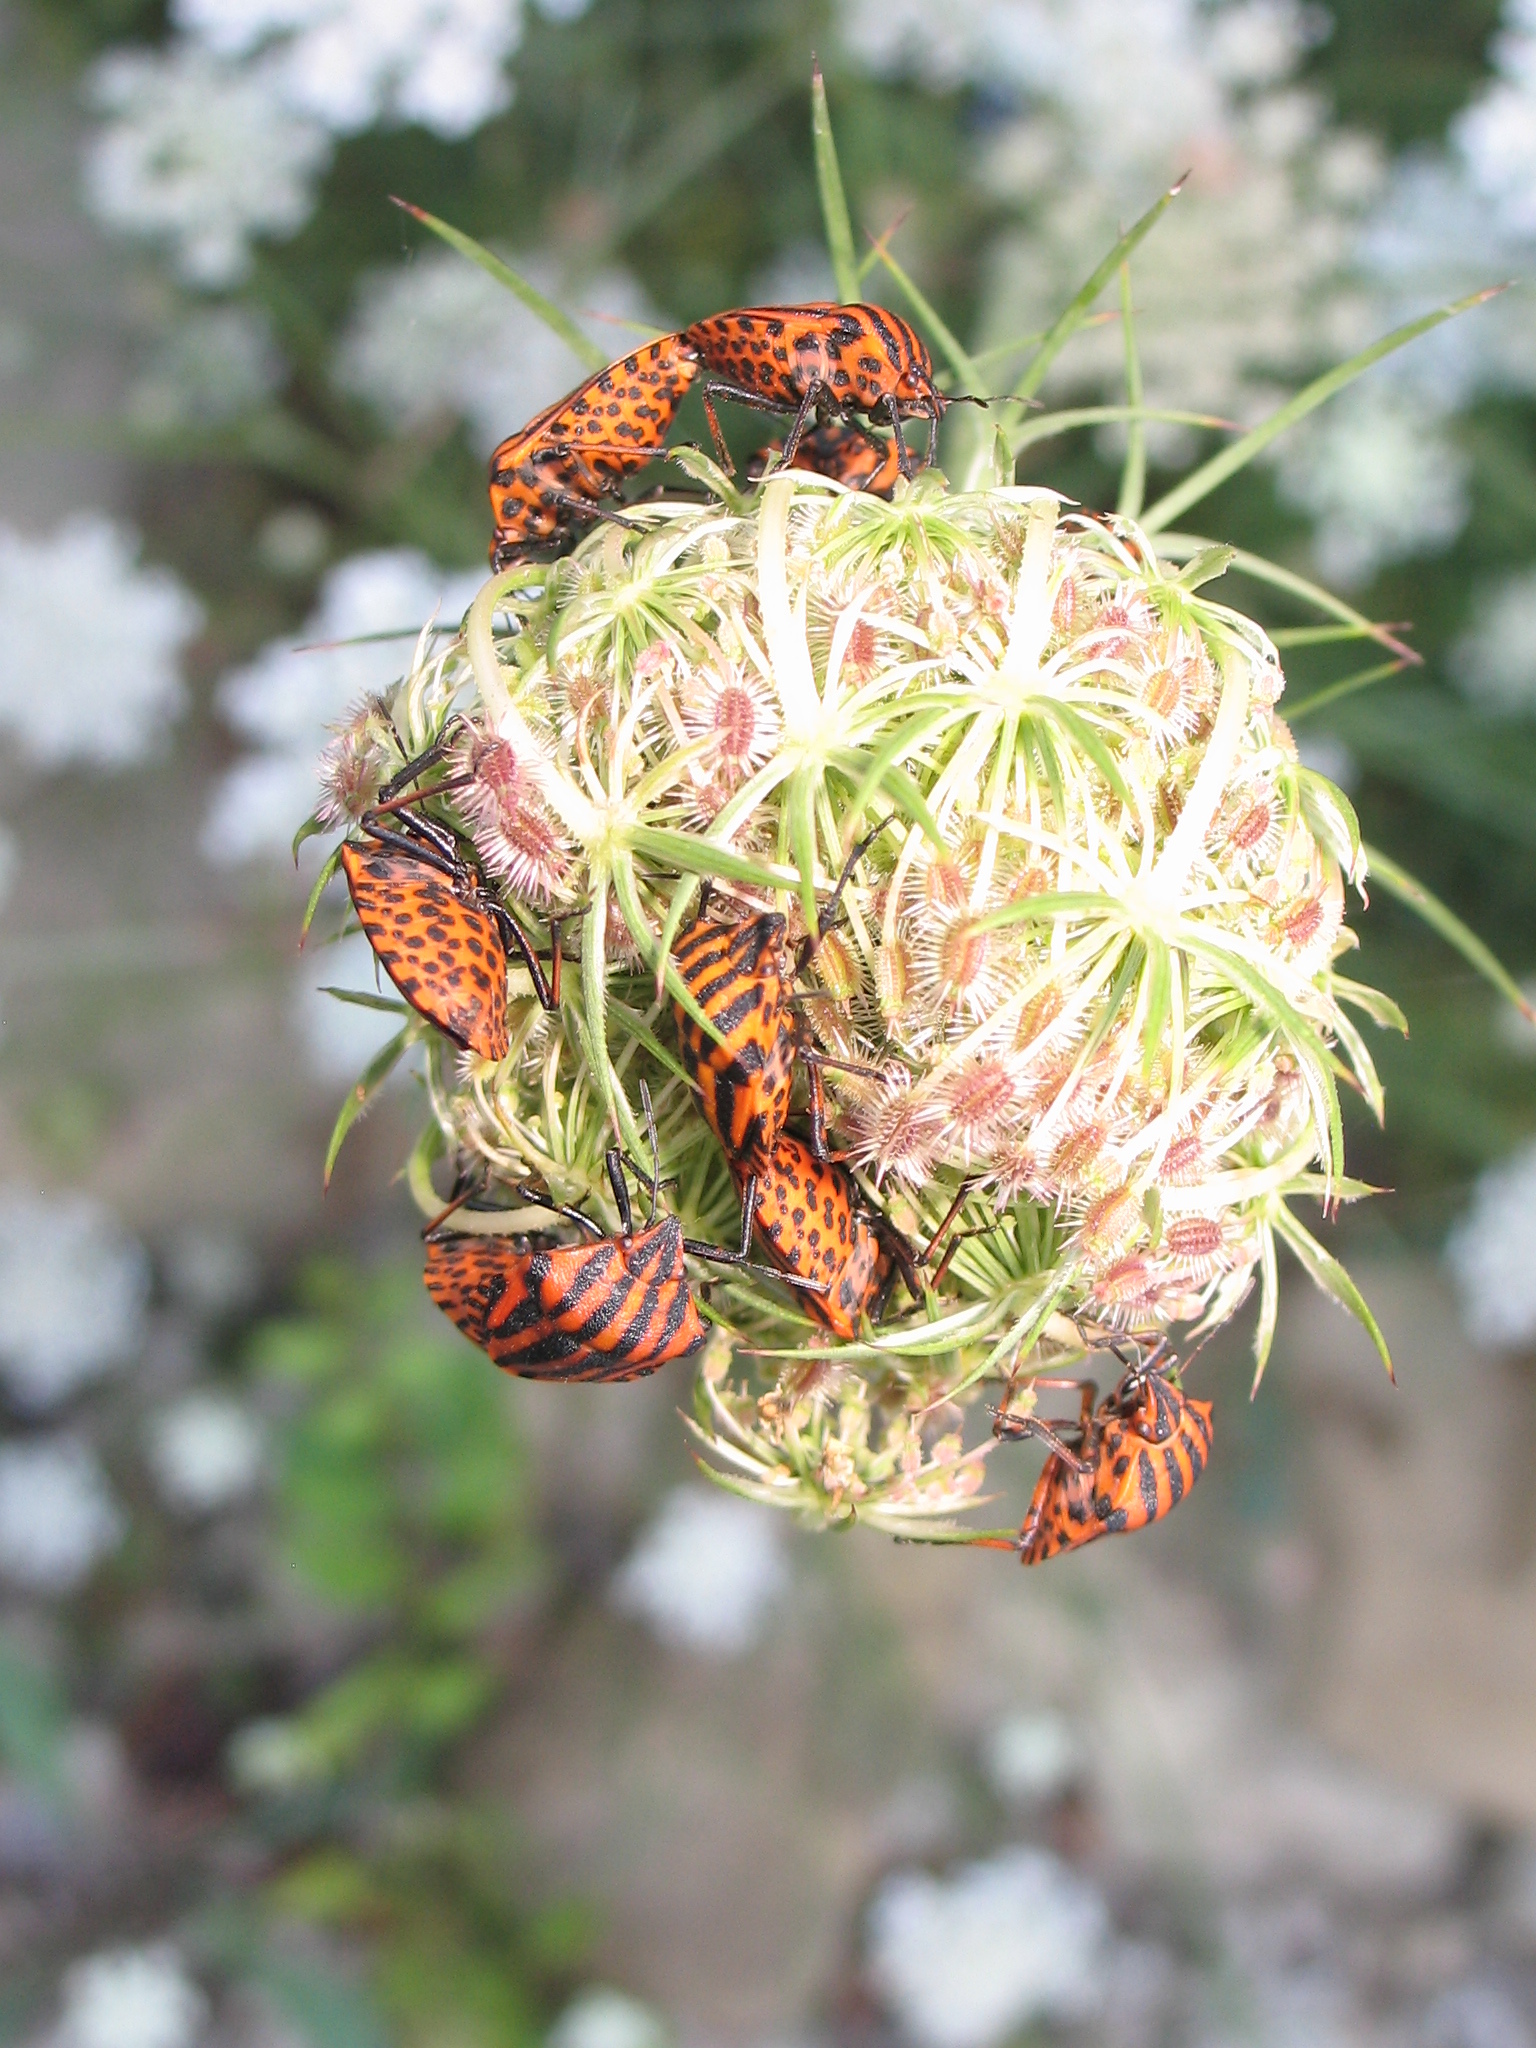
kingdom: Animalia
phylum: Arthropoda
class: Insecta
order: Hemiptera
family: Pentatomidae
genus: Graphosoma
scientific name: Graphosoma italicum
